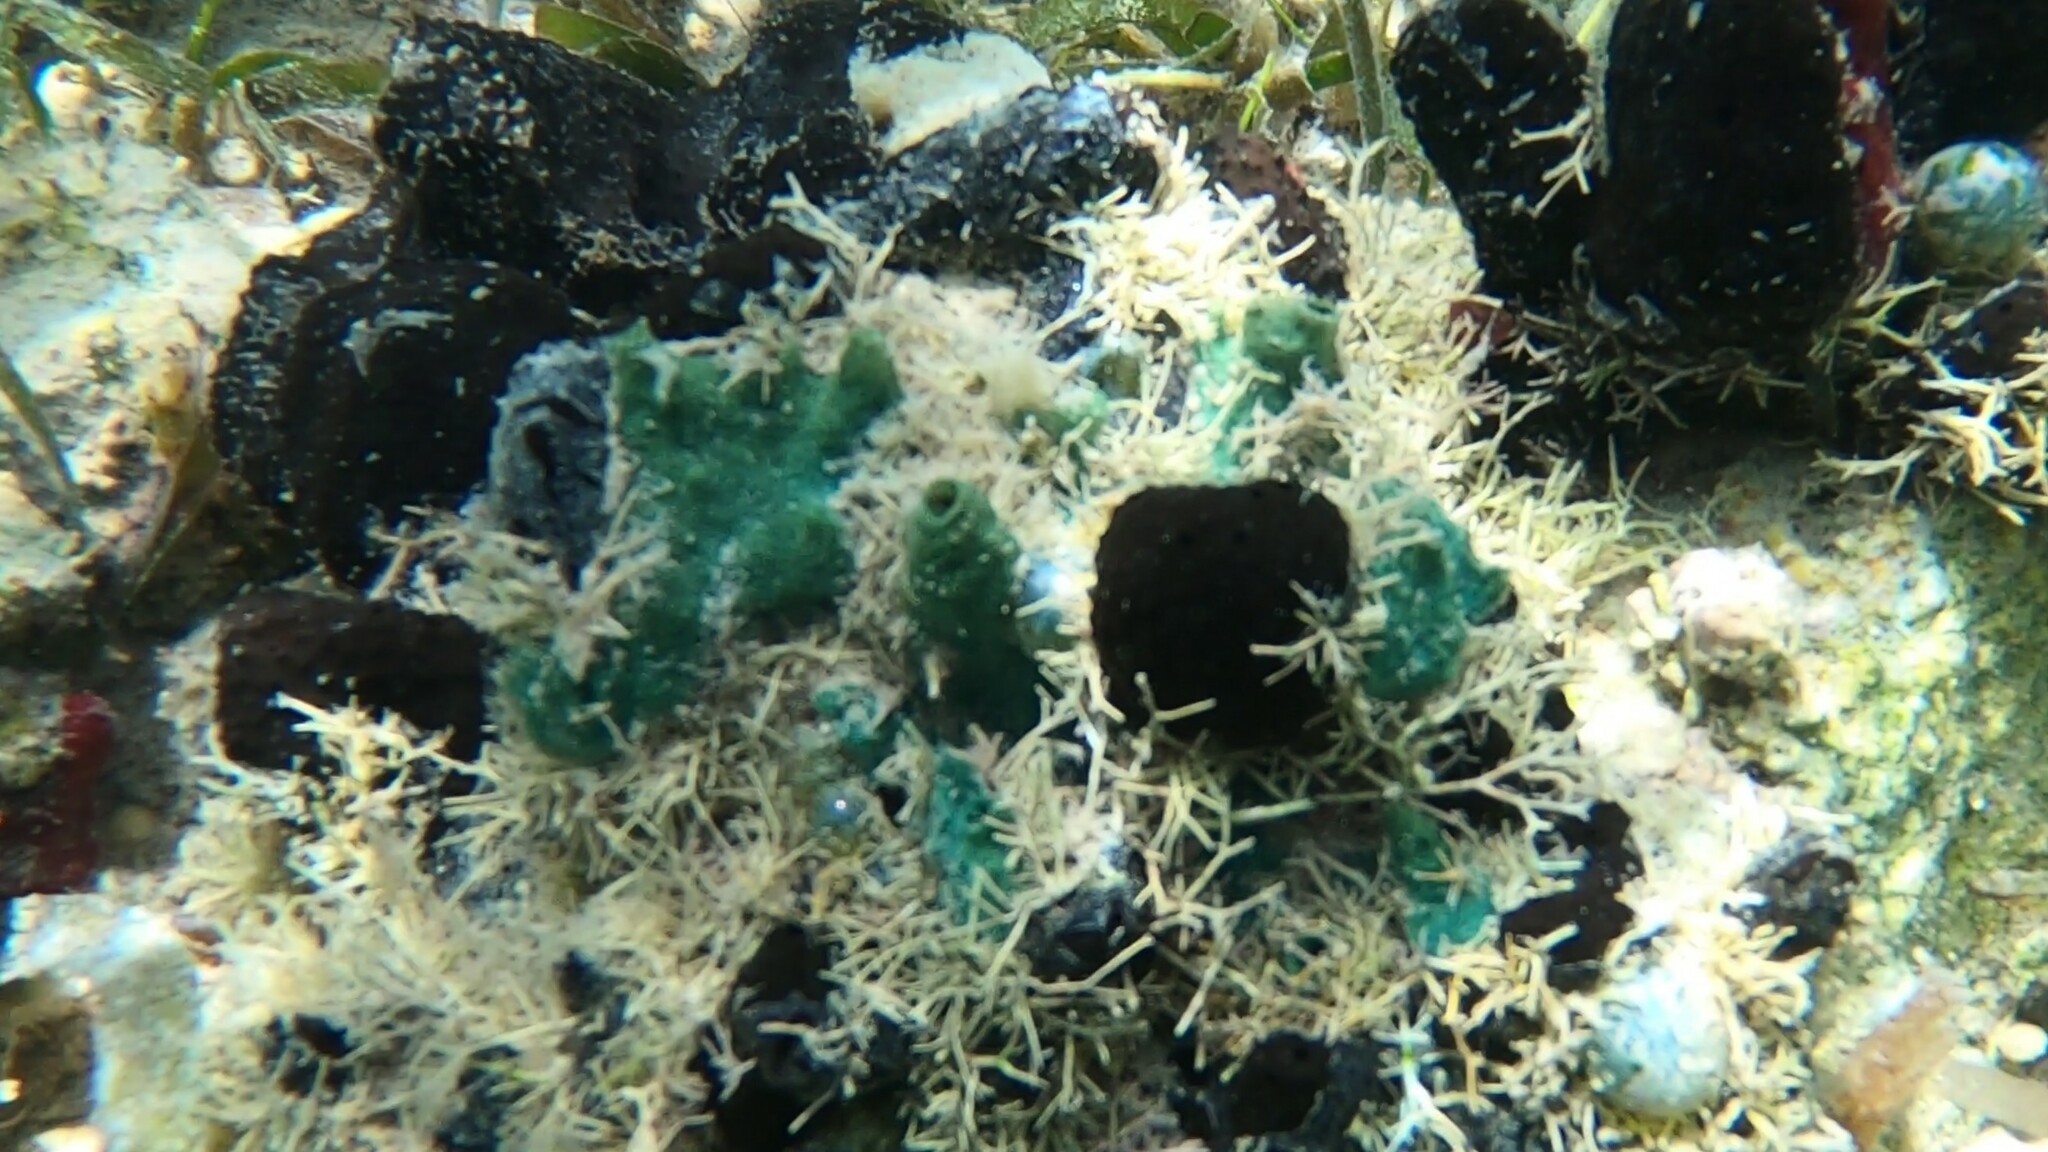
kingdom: Animalia
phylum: Porifera
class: Demospongiae
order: Haplosclerida
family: Niphatidae
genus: Amphimedon
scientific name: Amphimedon viridis
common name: Green sponge
